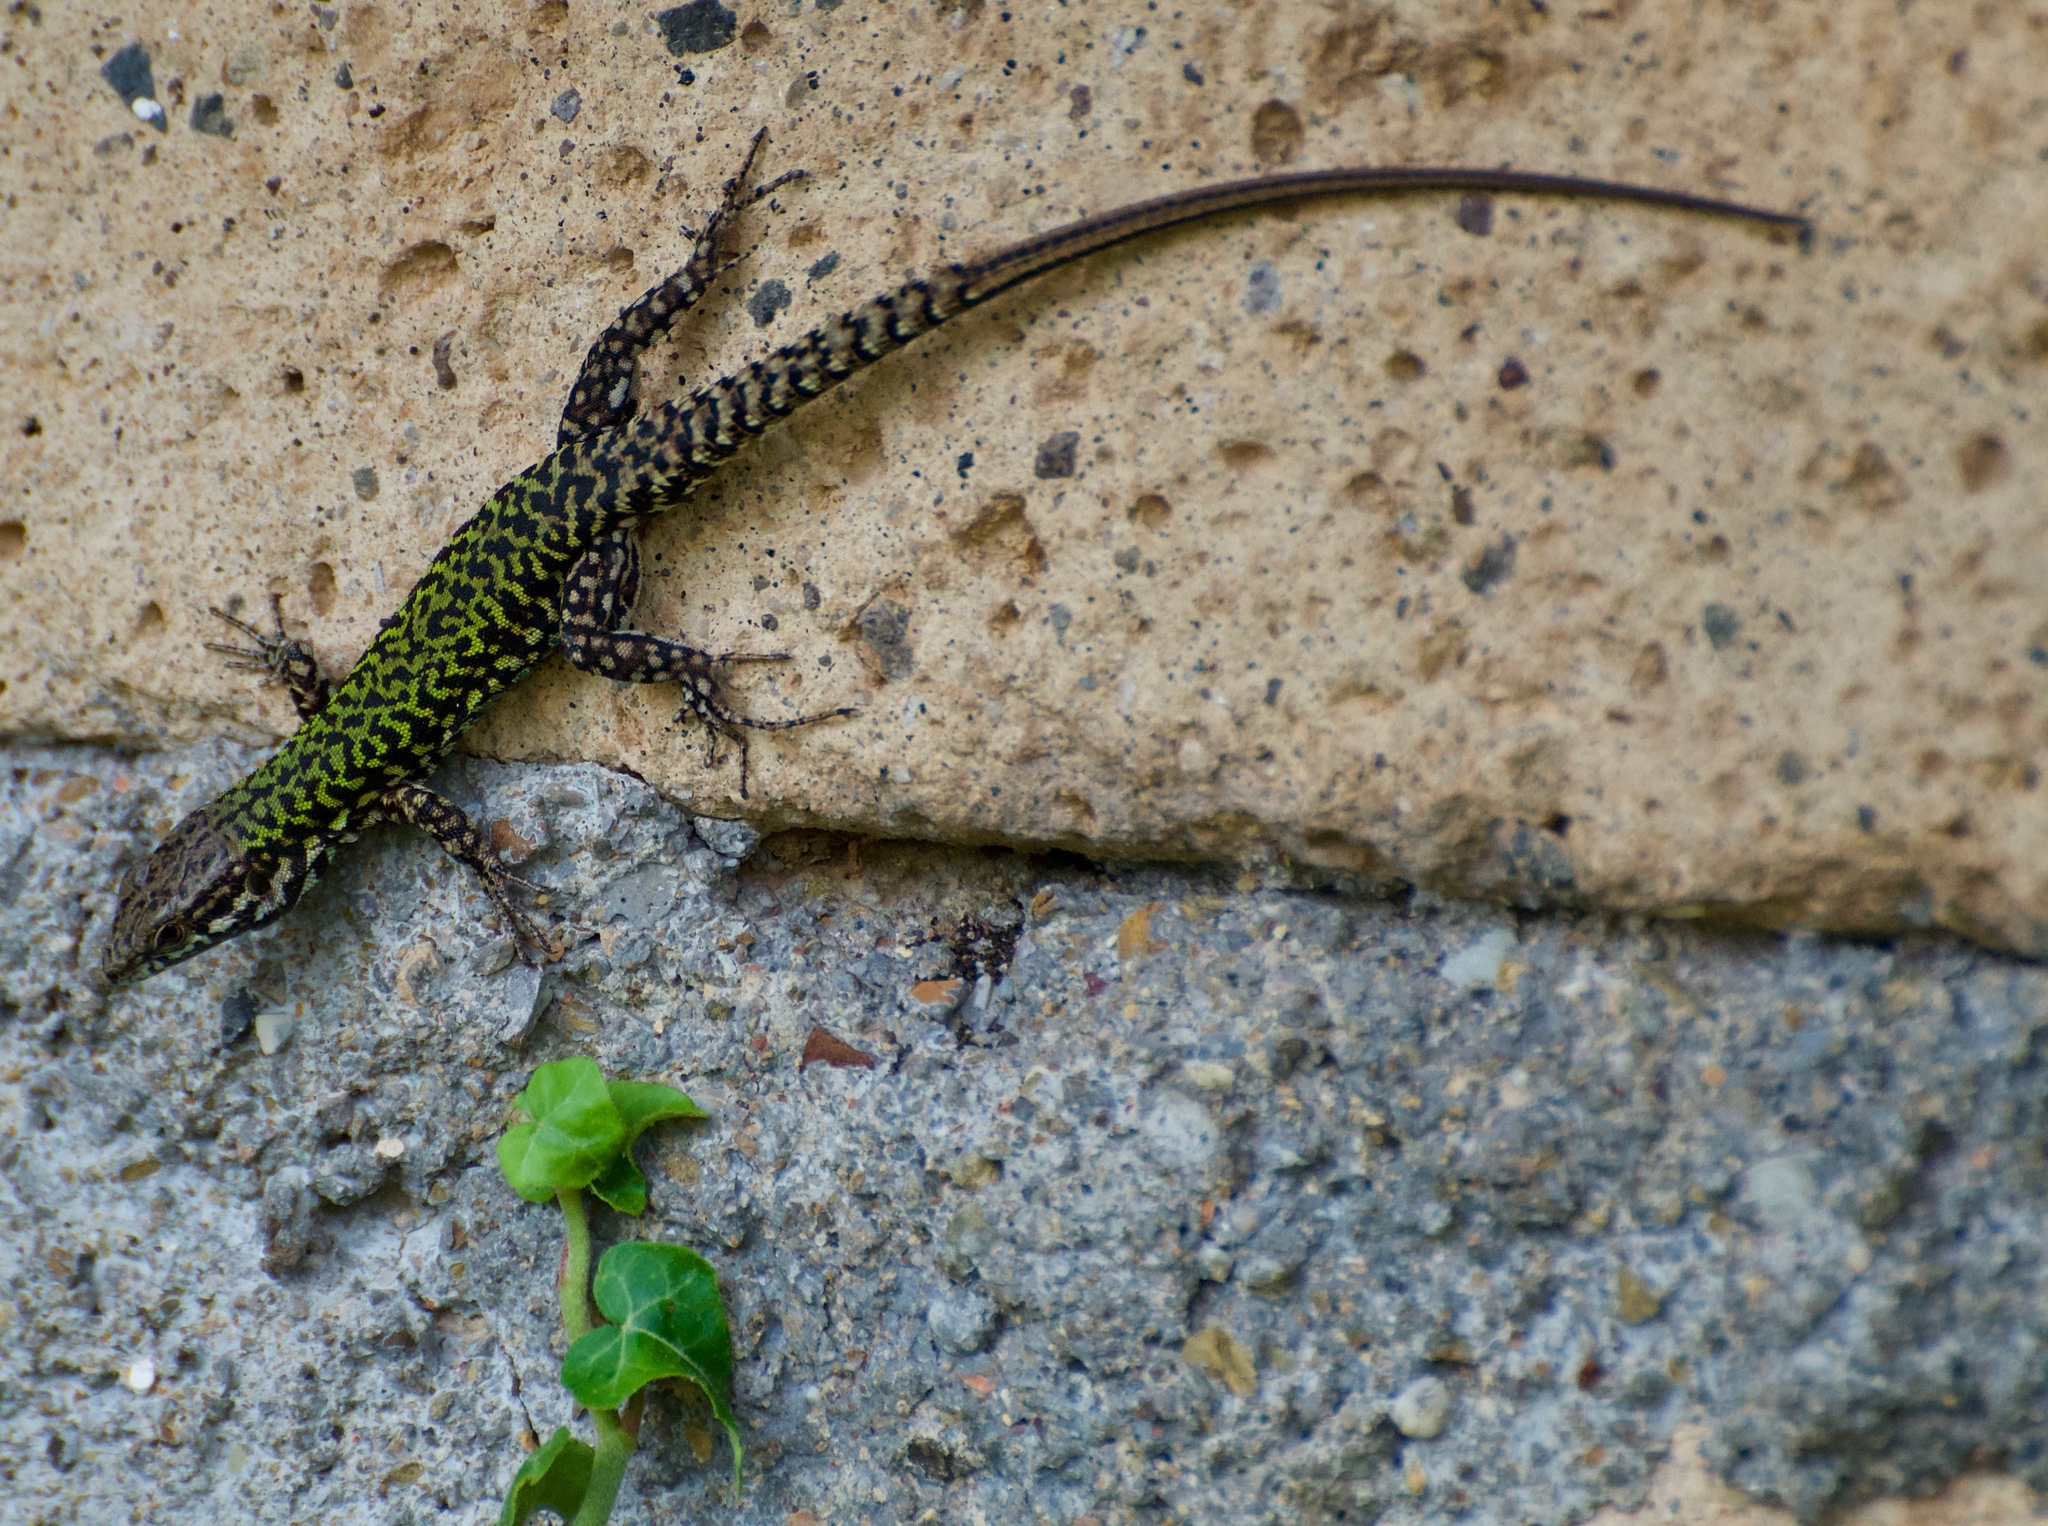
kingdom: Animalia
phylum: Chordata
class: Squamata
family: Lacertidae
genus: Podarcis
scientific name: Podarcis muralis
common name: Common wall lizard
